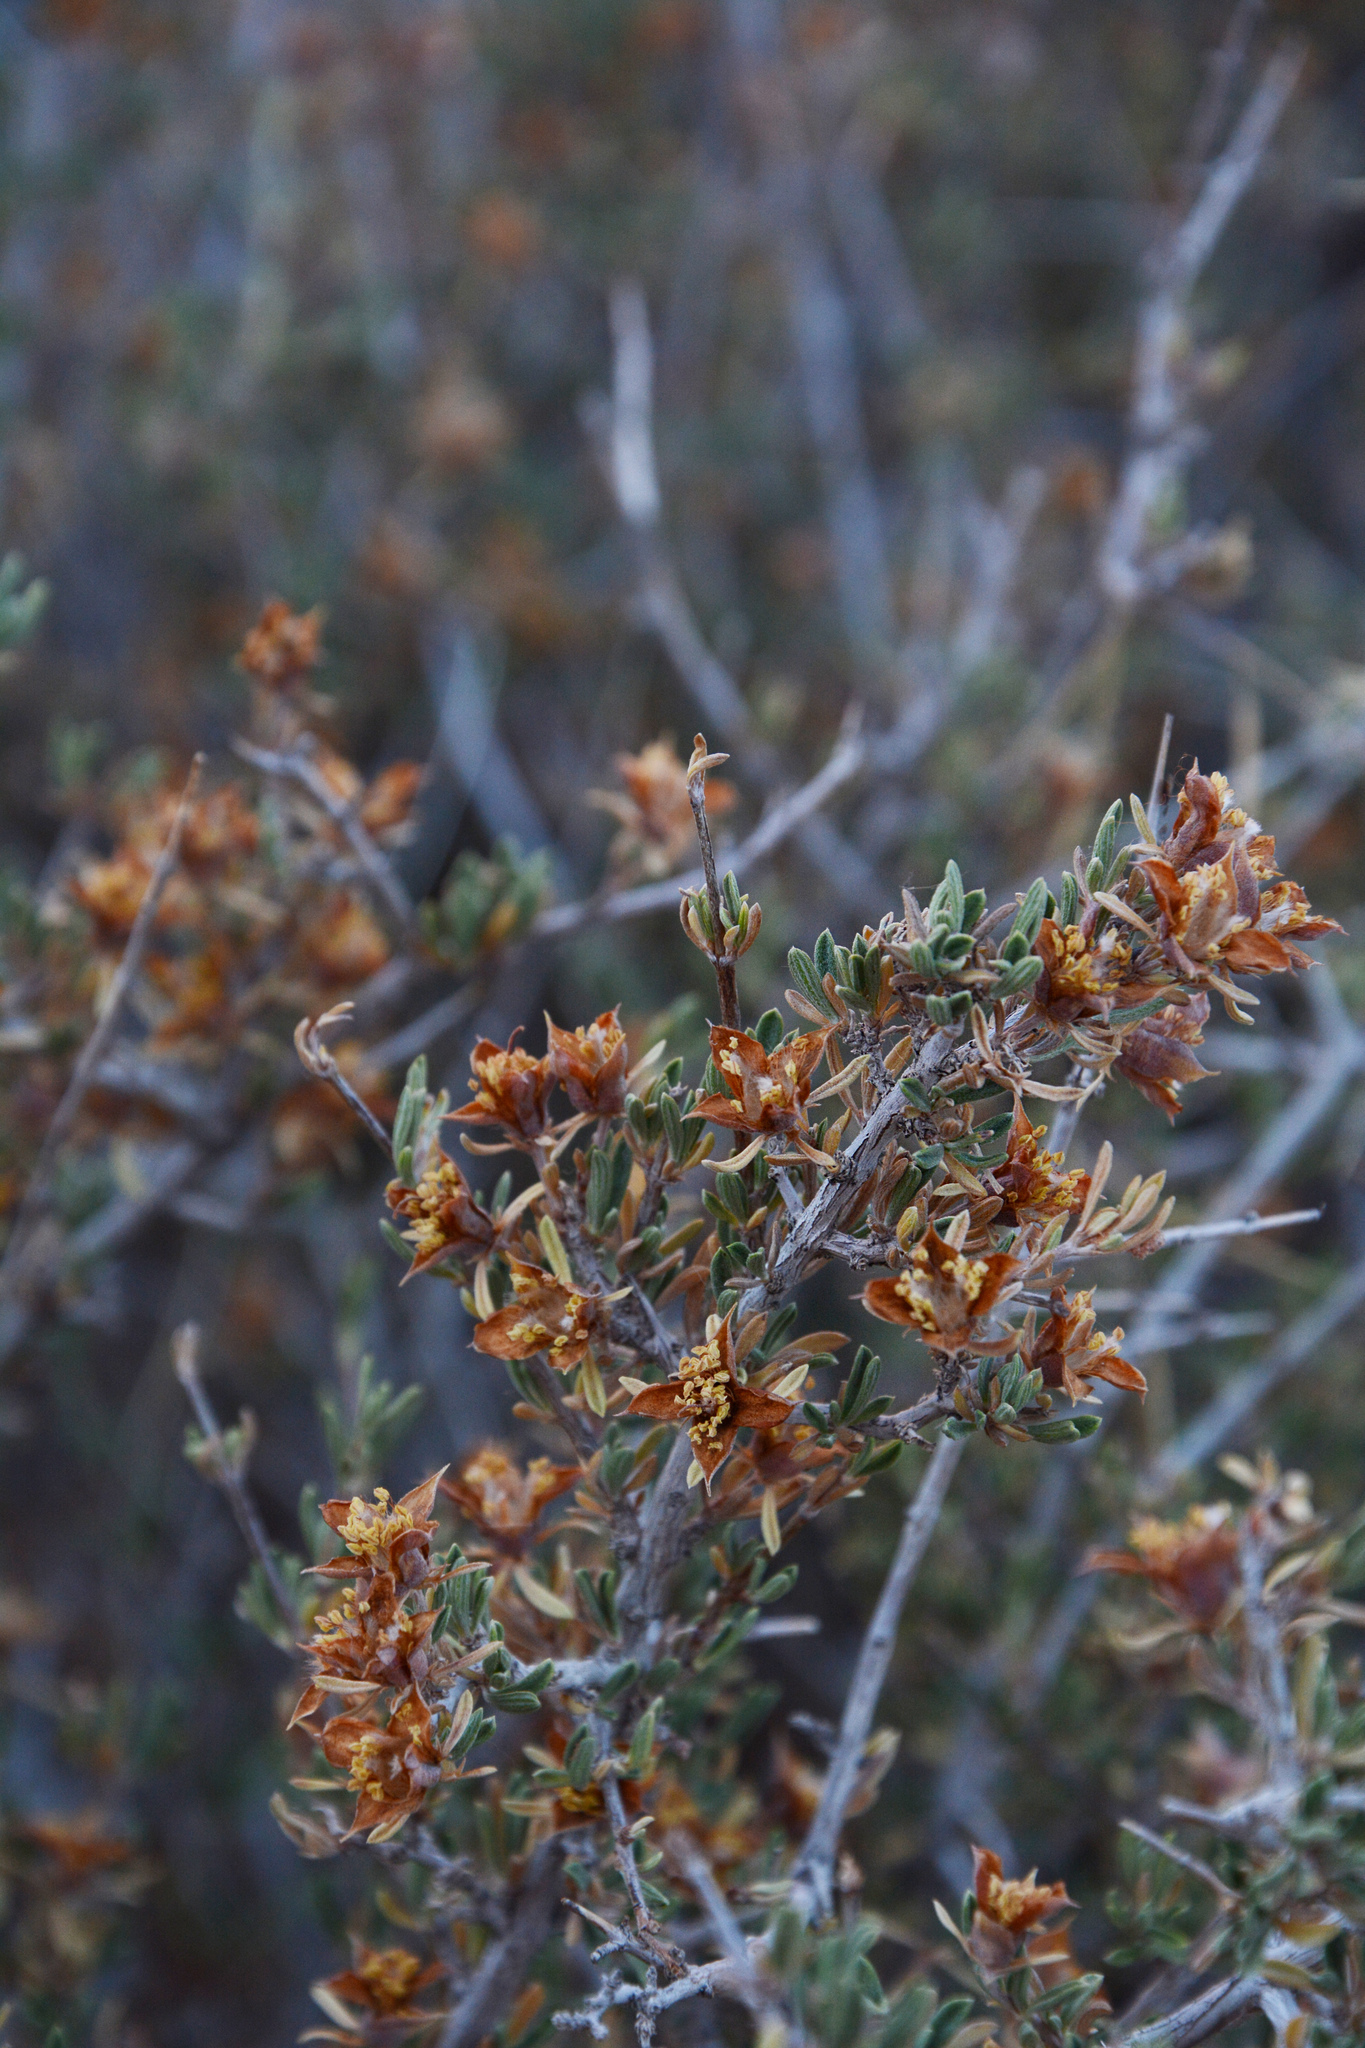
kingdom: Plantae
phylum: Tracheophyta
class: Magnoliopsida
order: Rosales
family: Rosaceae
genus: Coleogyne
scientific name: Coleogyne ramosissima
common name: Blackbrush
